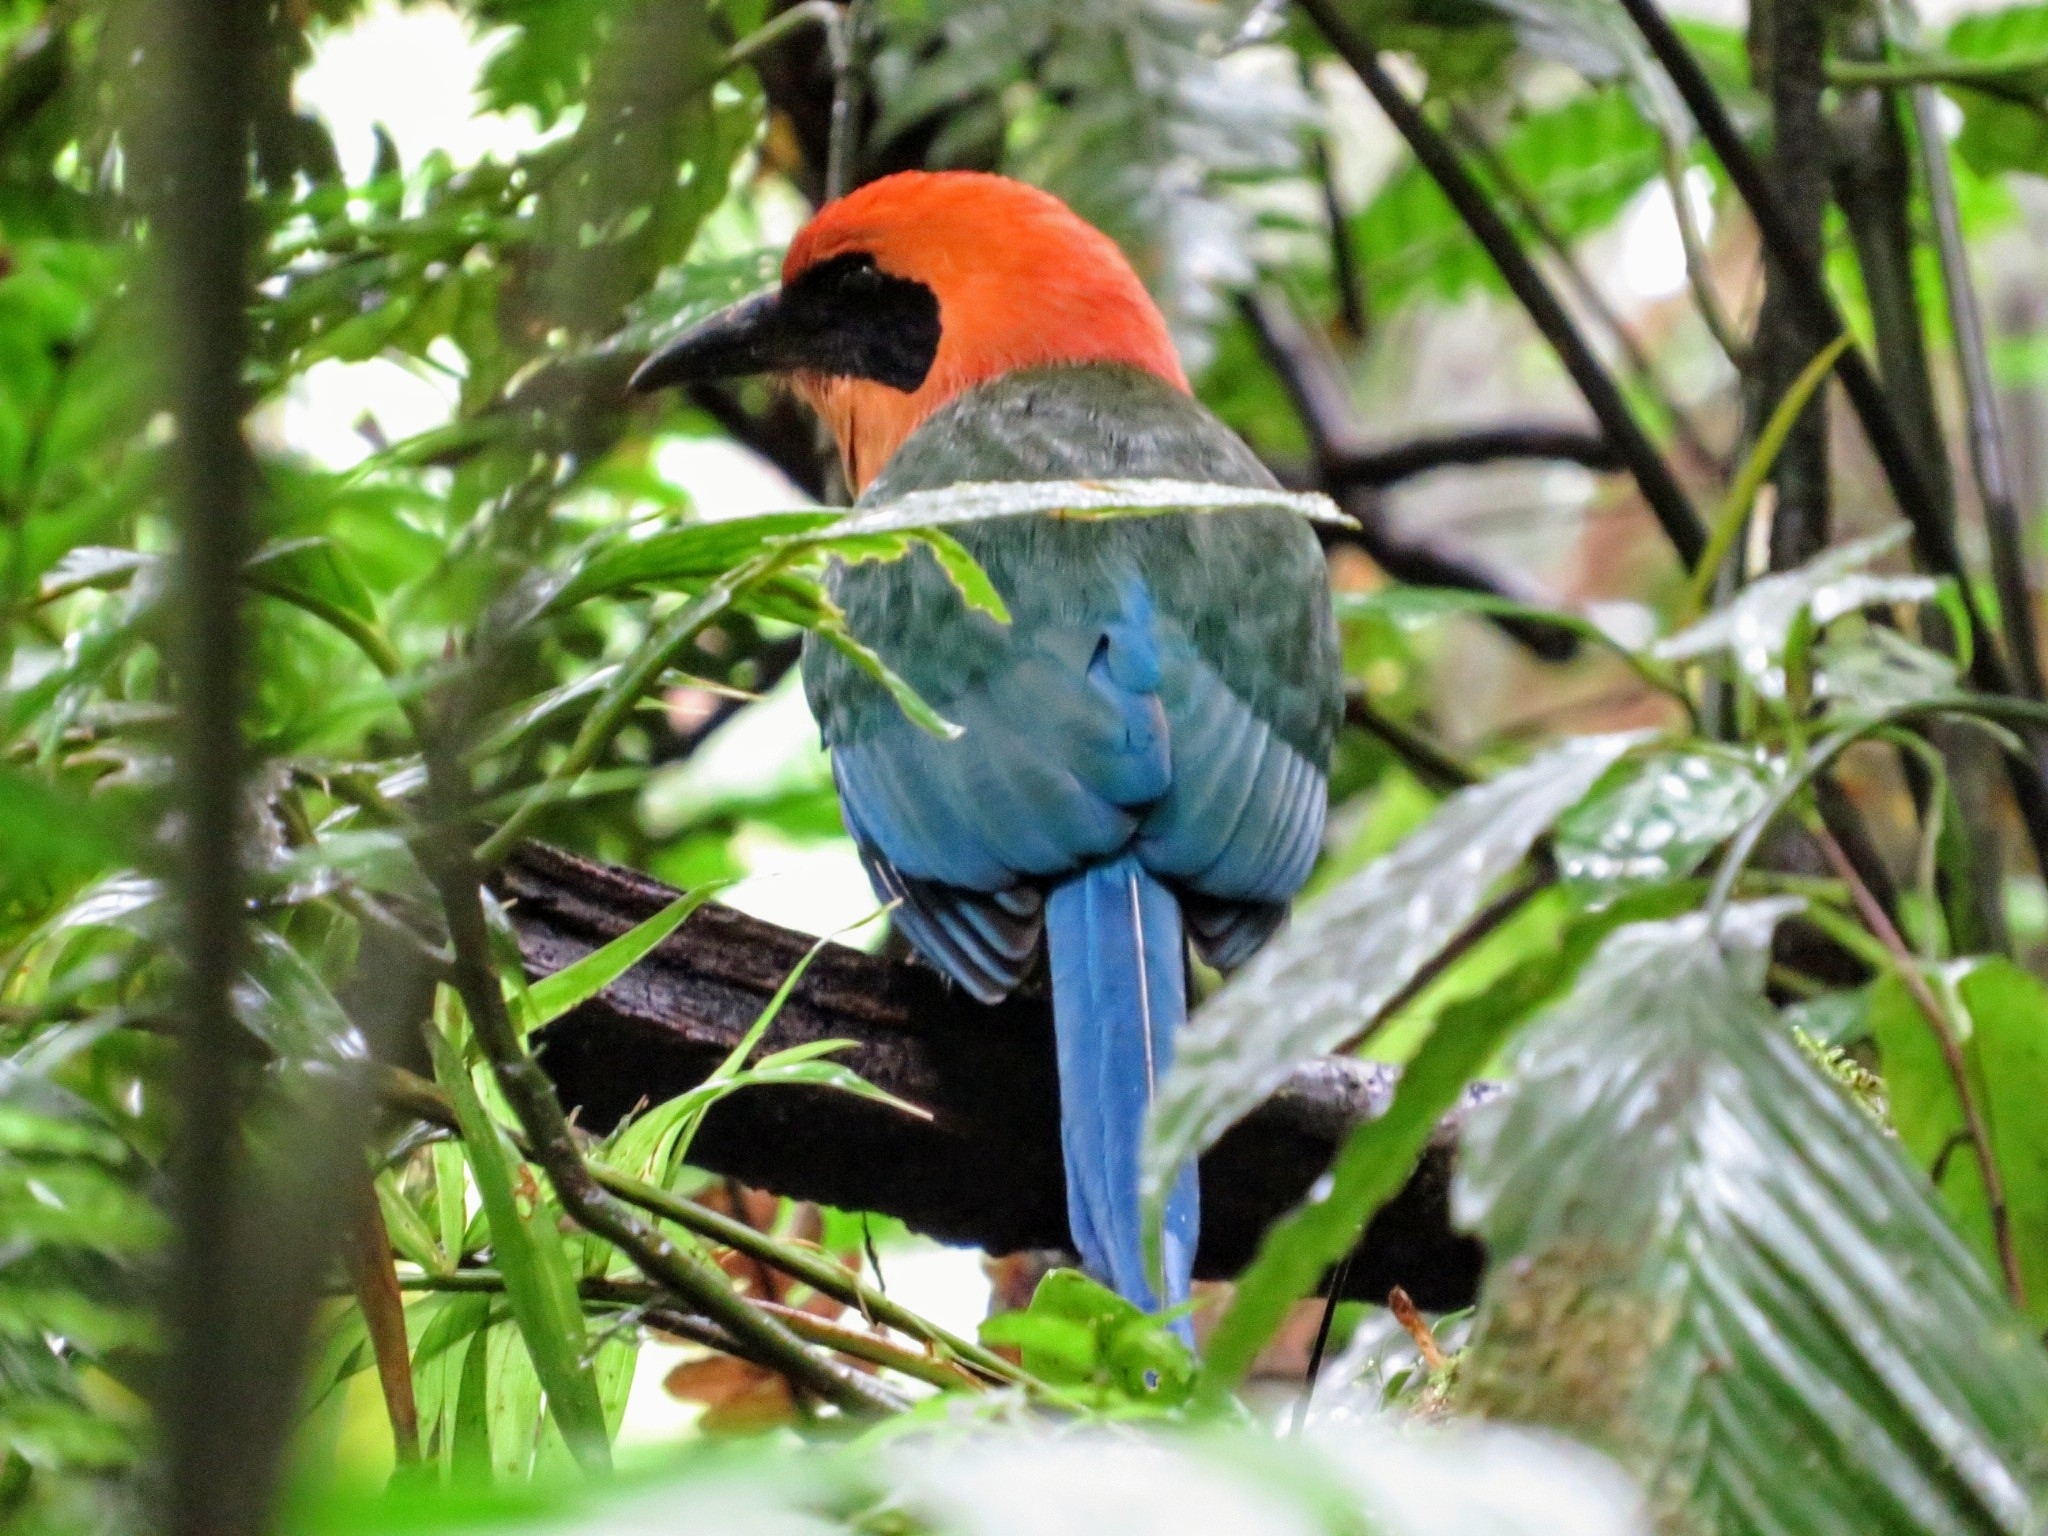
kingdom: Animalia
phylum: Chordata
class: Aves
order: Coraciiformes
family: Momotidae
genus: Baryphthengus
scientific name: Baryphthengus martii
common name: Rufous motmot
